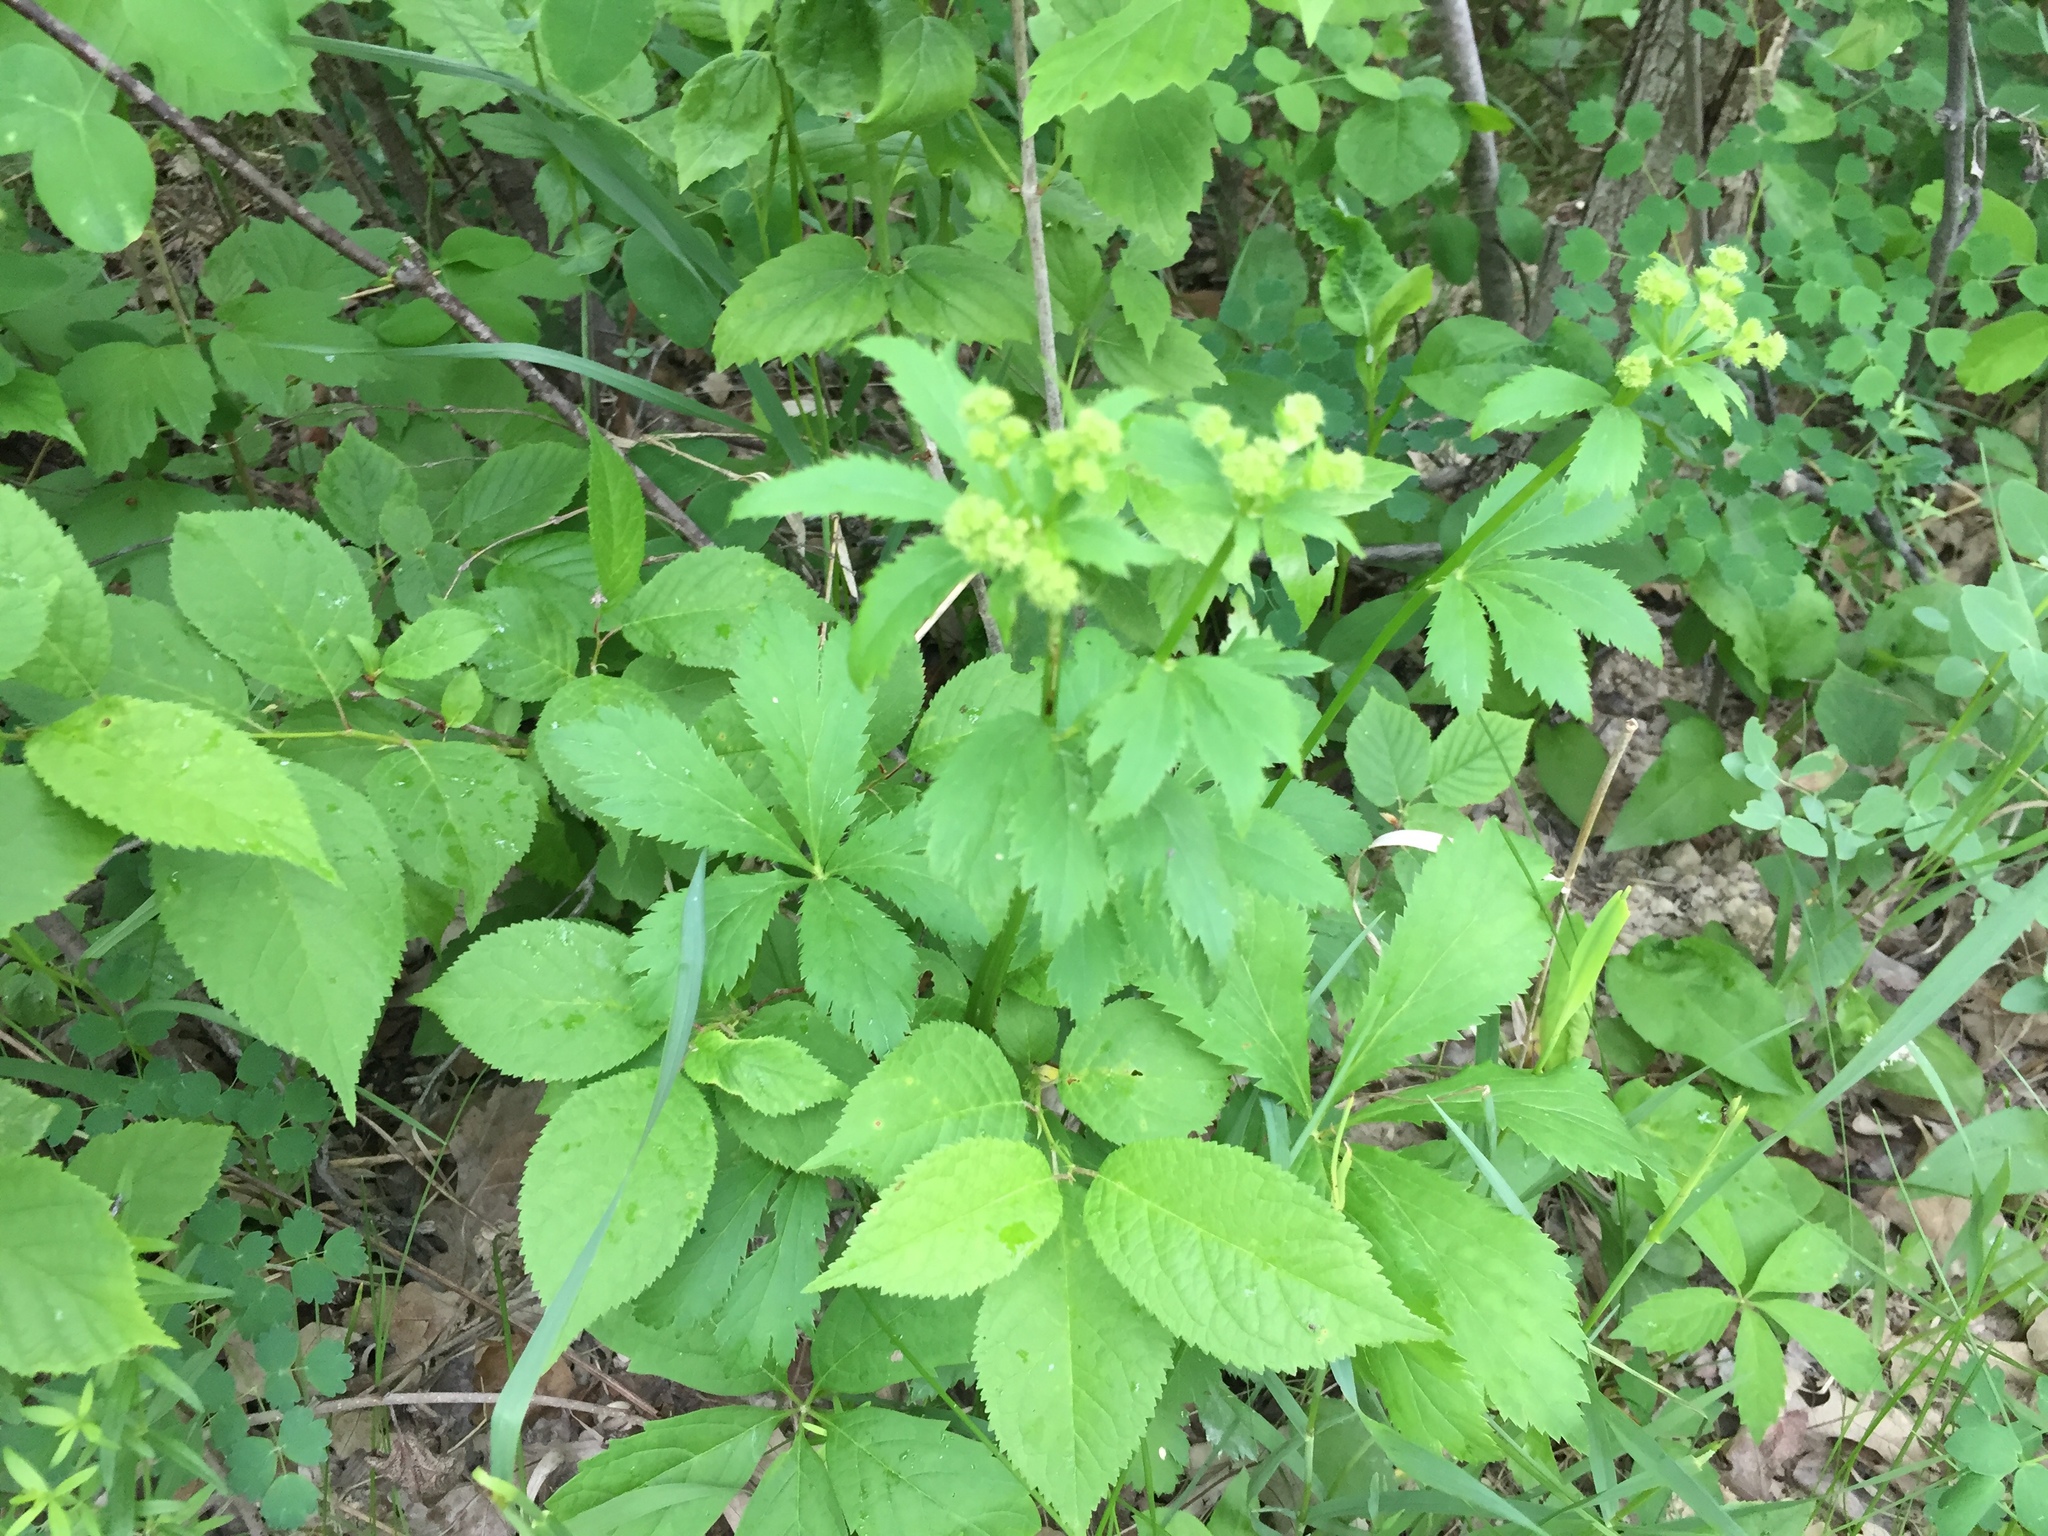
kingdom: Plantae
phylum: Tracheophyta
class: Magnoliopsida
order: Apiales
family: Apiaceae
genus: Sanicula
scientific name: Sanicula marilandica
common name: Black snakeroot
